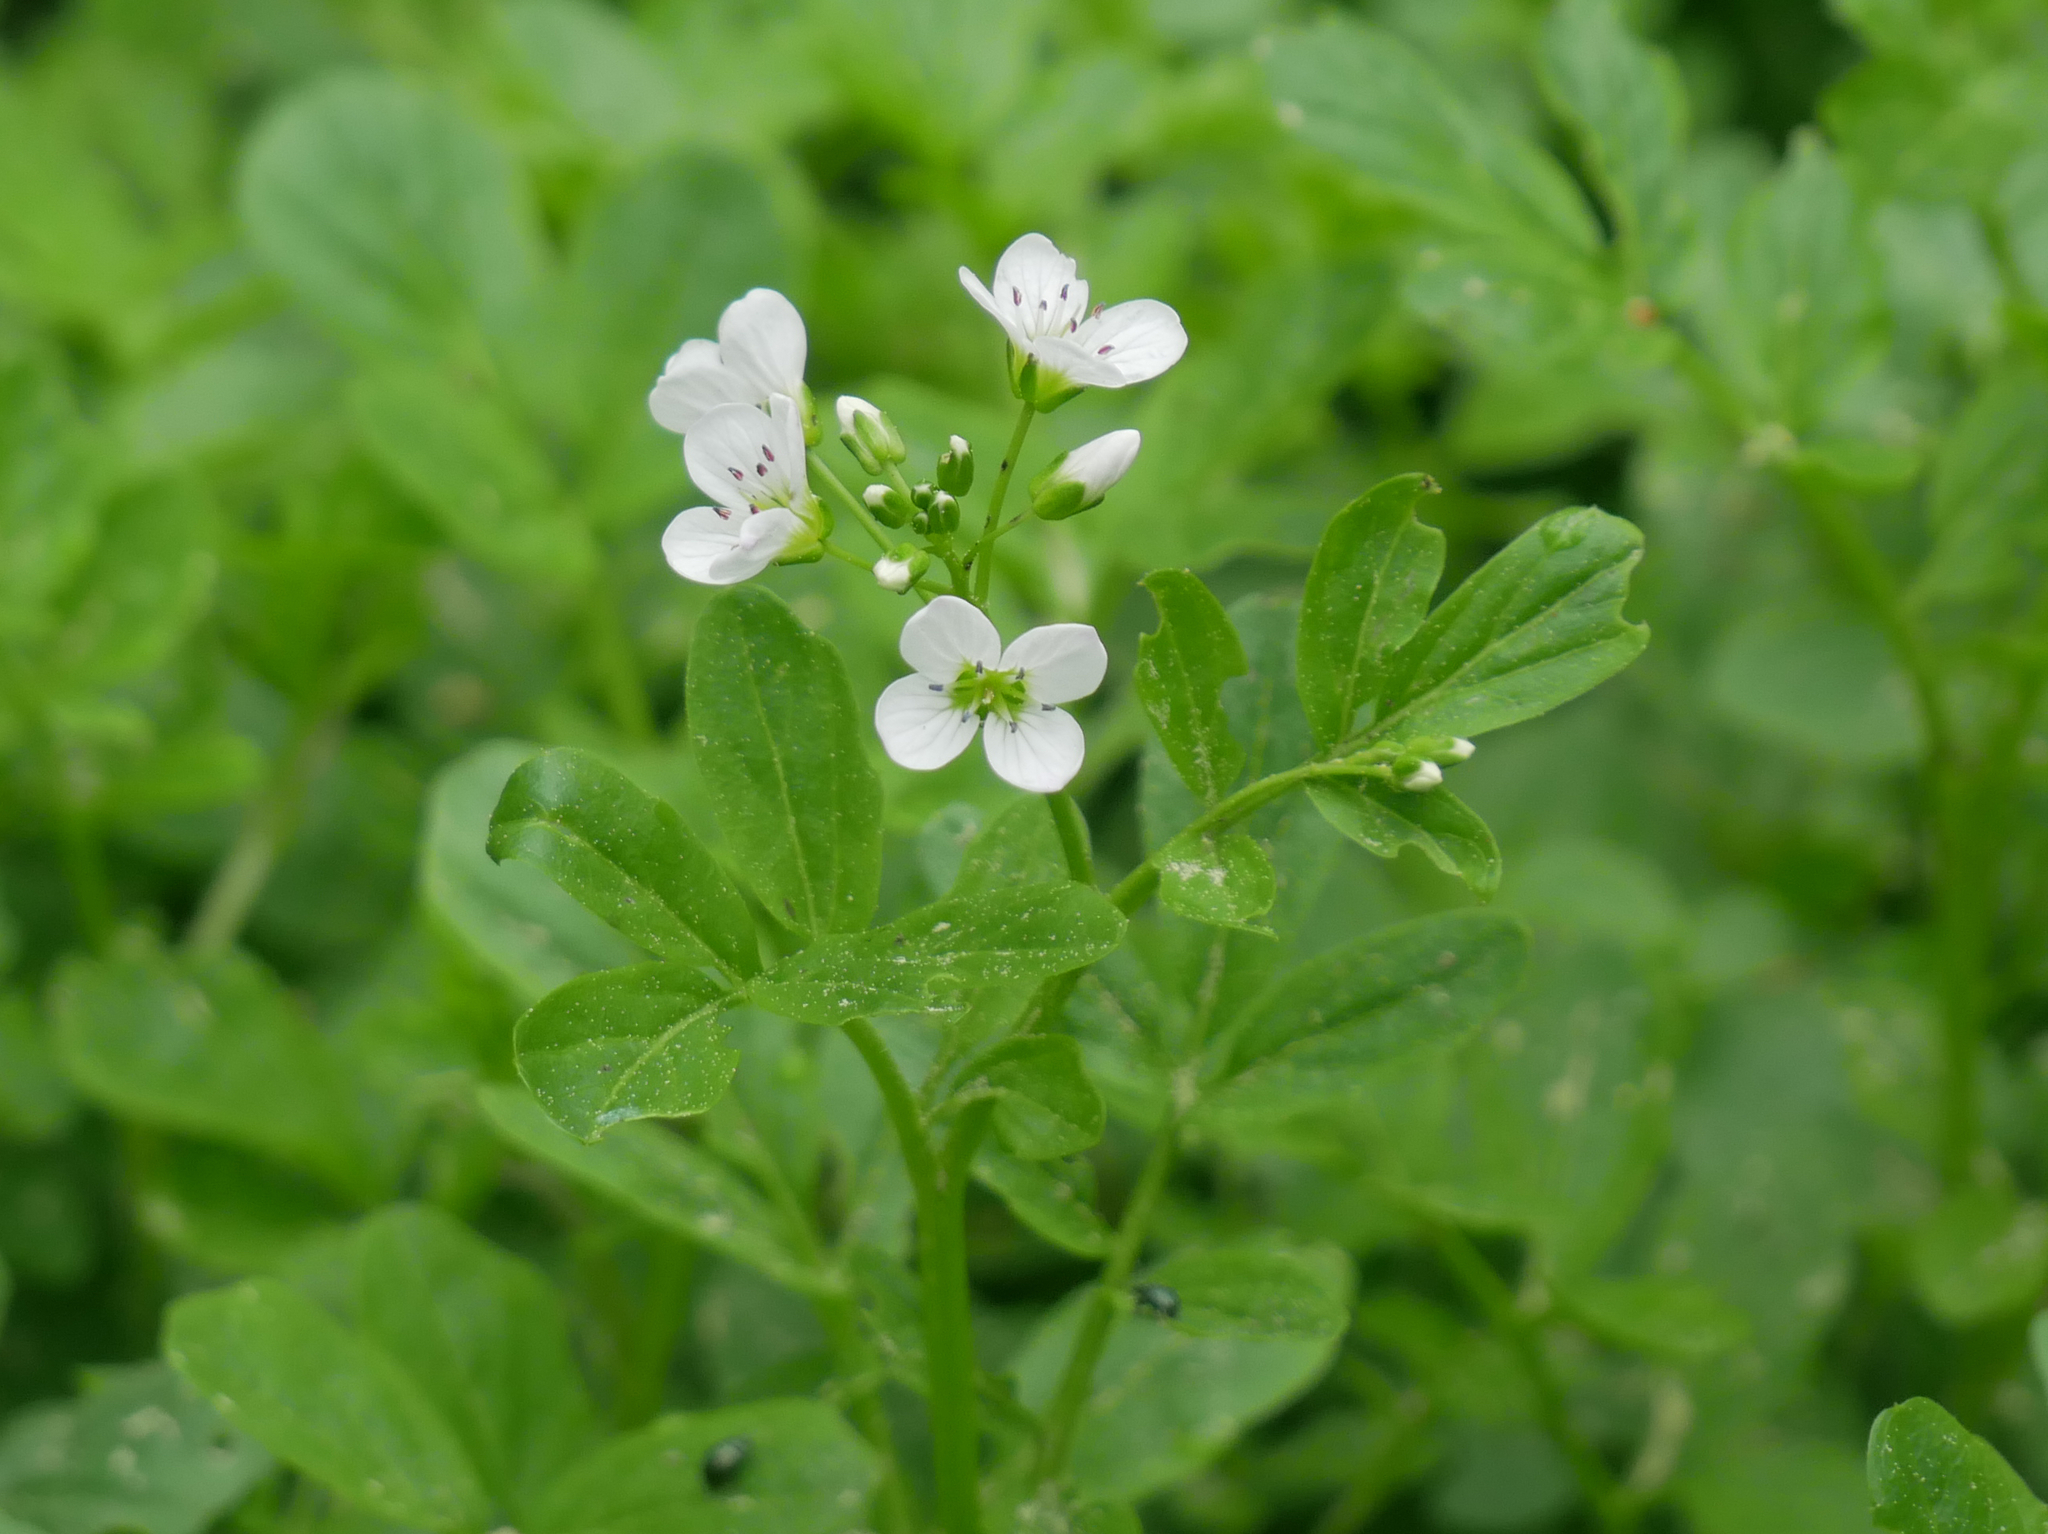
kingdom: Plantae
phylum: Tracheophyta
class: Magnoliopsida
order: Brassicales
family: Brassicaceae
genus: Cardamine
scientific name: Cardamine amara
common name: Large bitter-cress
